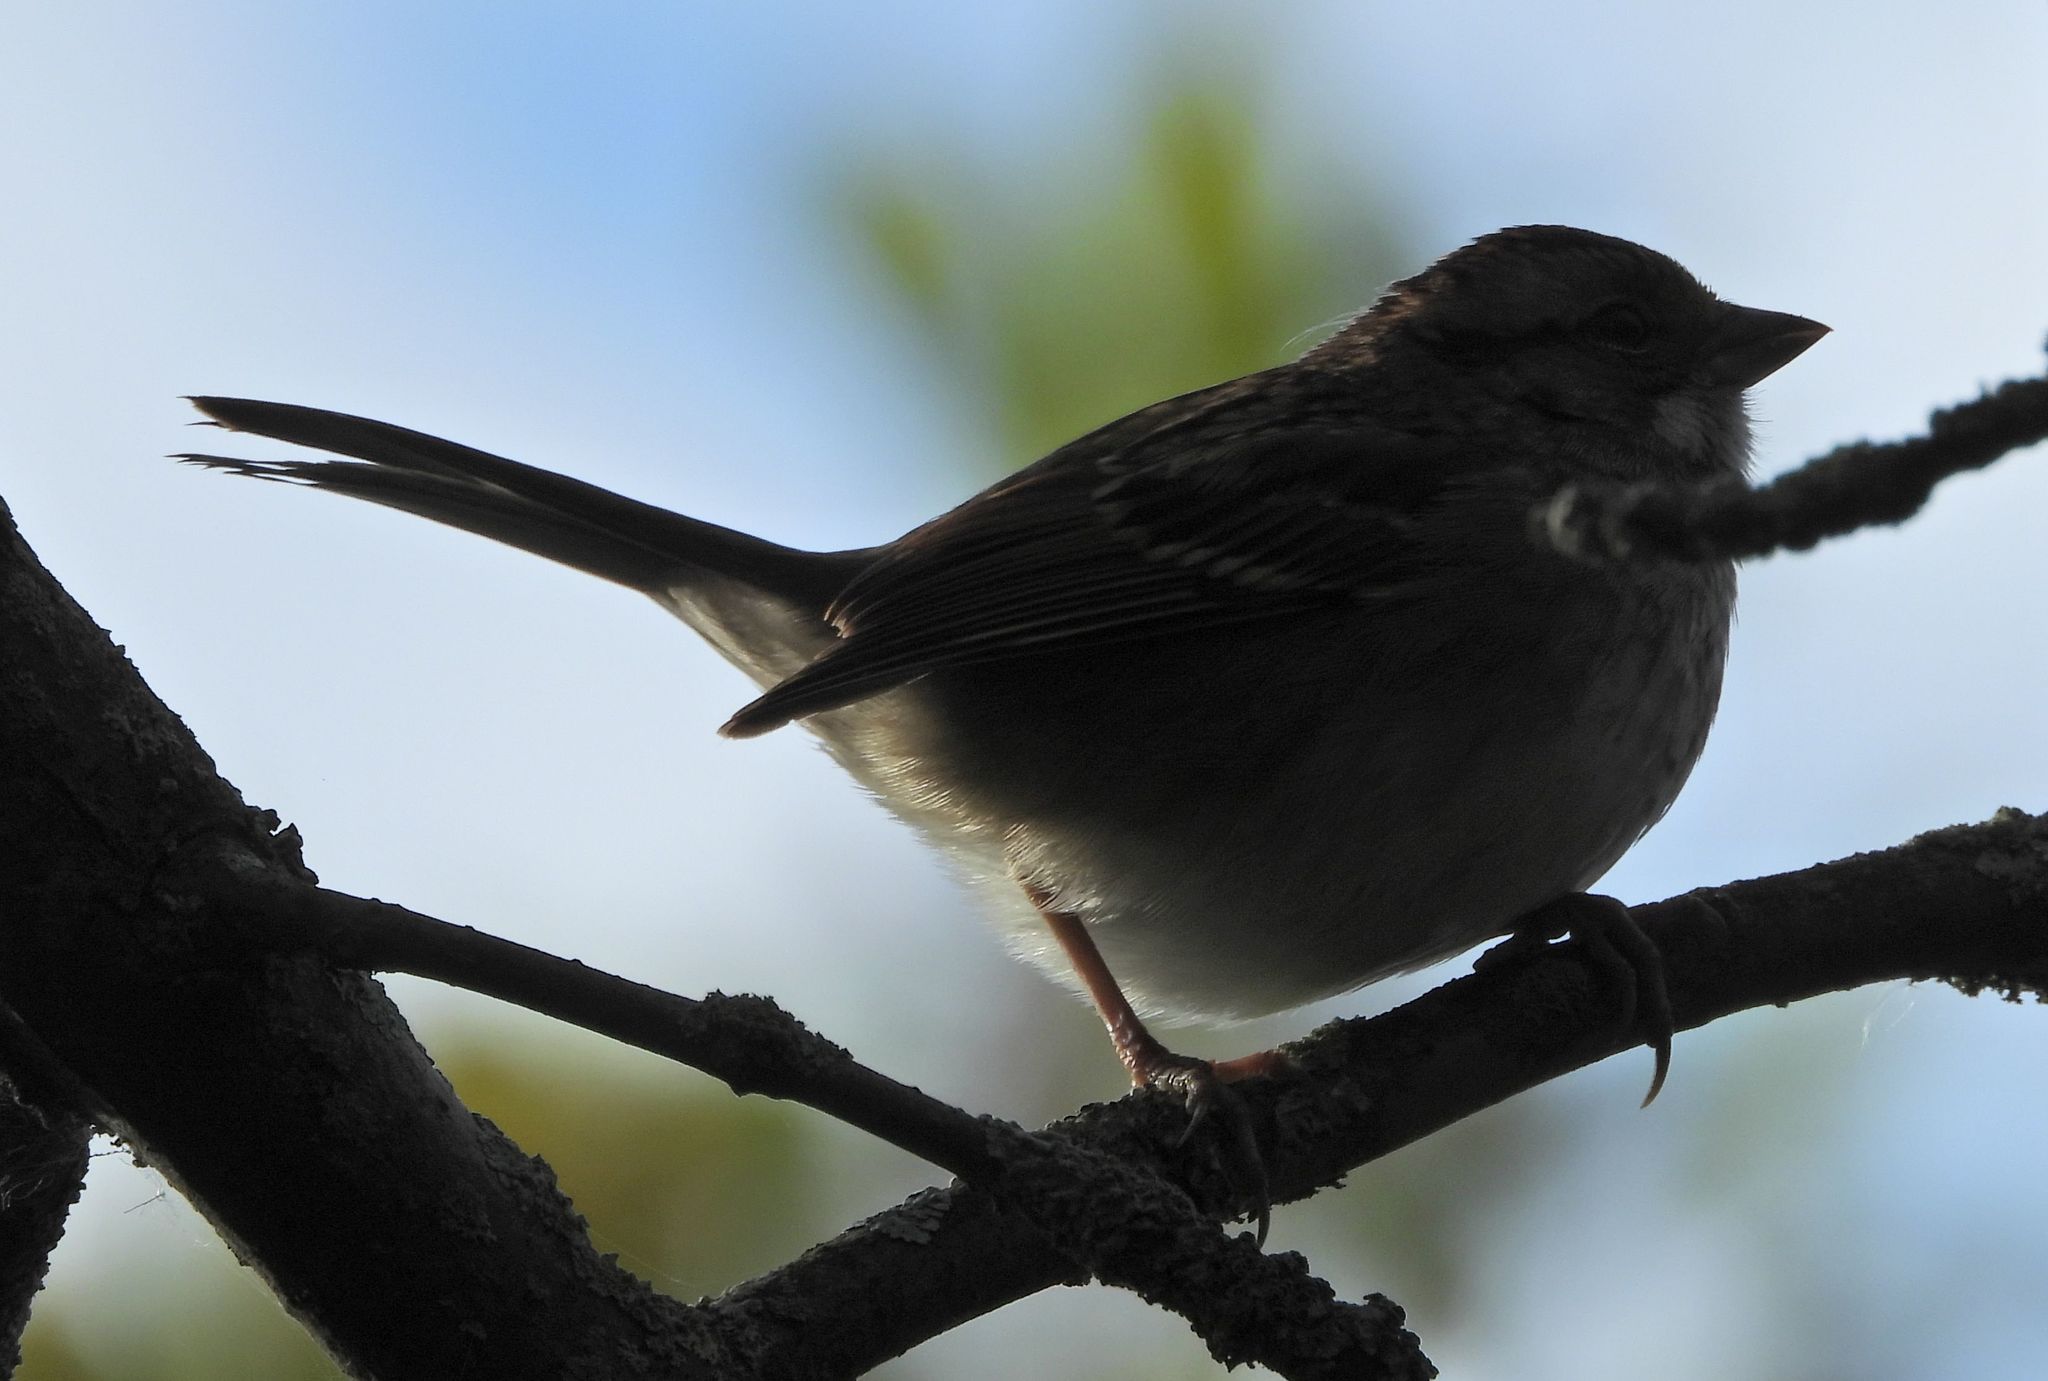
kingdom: Animalia
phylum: Chordata
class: Aves
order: Passeriformes
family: Passerellidae
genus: Zonotrichia
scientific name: Zonotrichia albicollis
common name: White-throated sparrow
